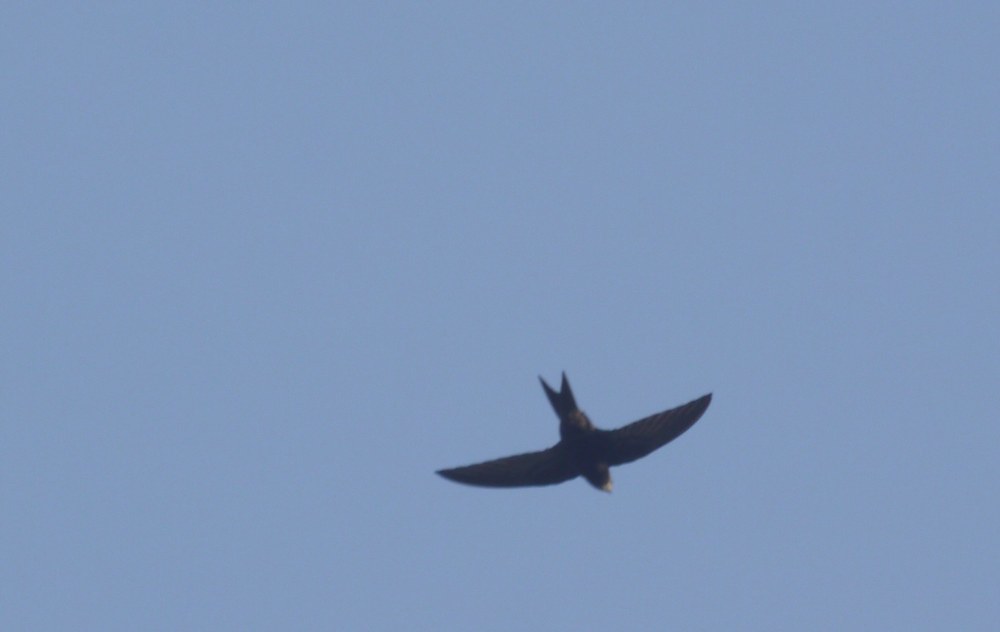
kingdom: Animalia
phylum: Chordata
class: Aves
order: Apodiformes
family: Apodidae
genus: Apus
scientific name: Apus apus
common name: Common swift
